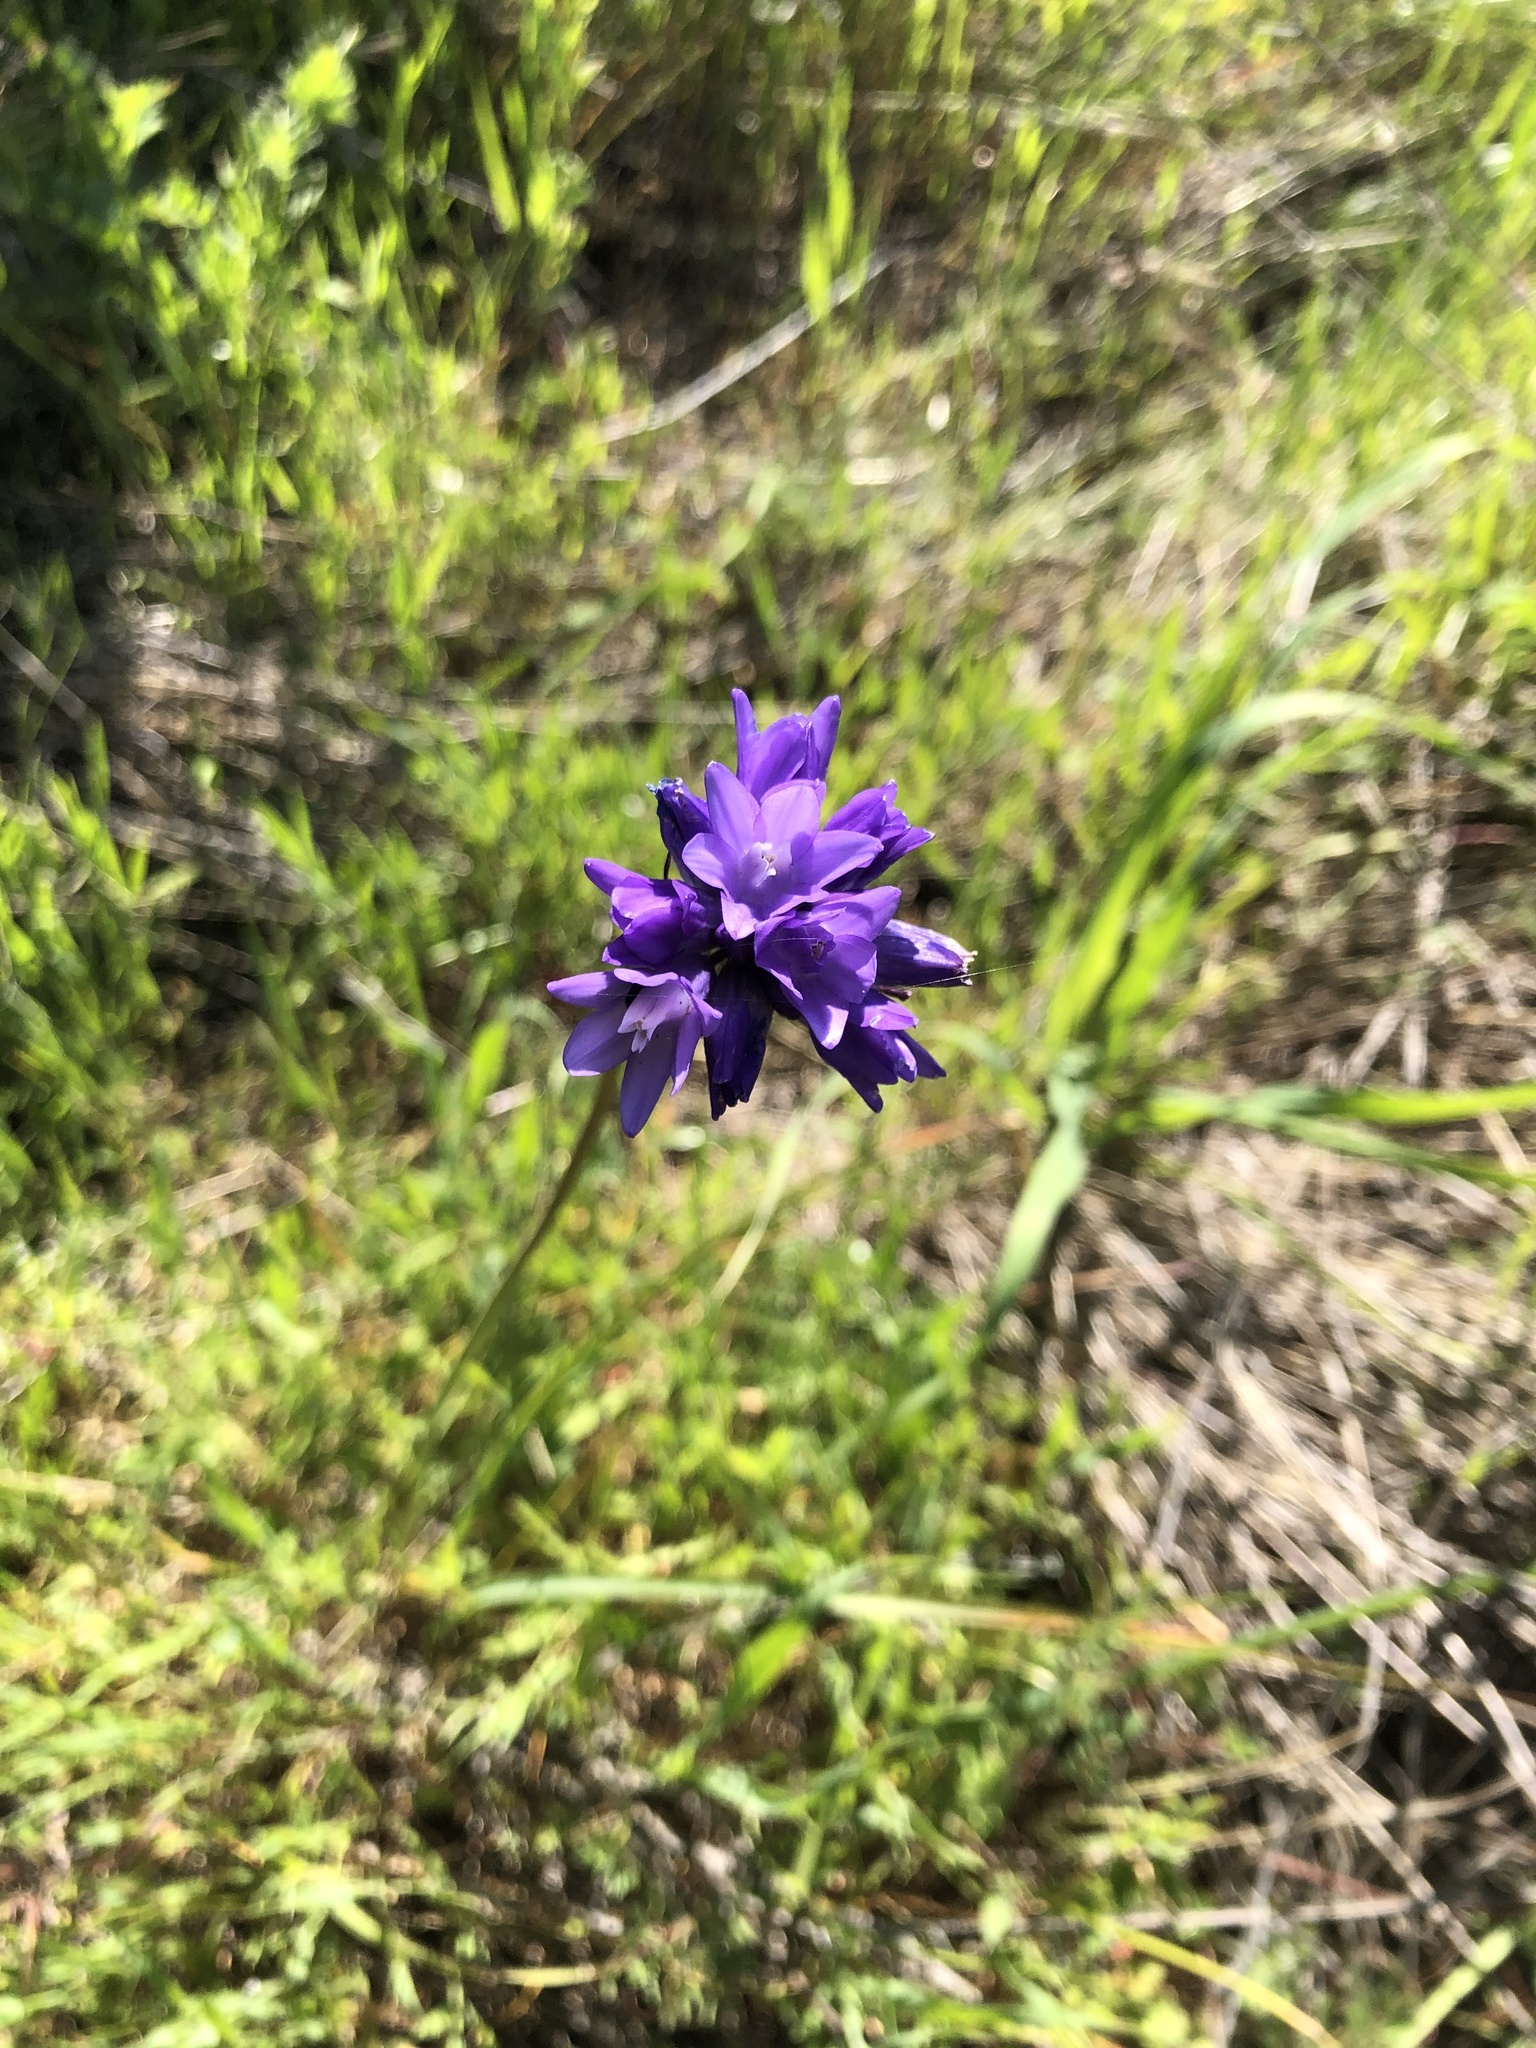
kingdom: Plantae
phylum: Tracheophyta
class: Liliopsida
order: Asparagales
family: Asparagaceae
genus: Dipterostemon
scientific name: Dipterostemon capitatus
